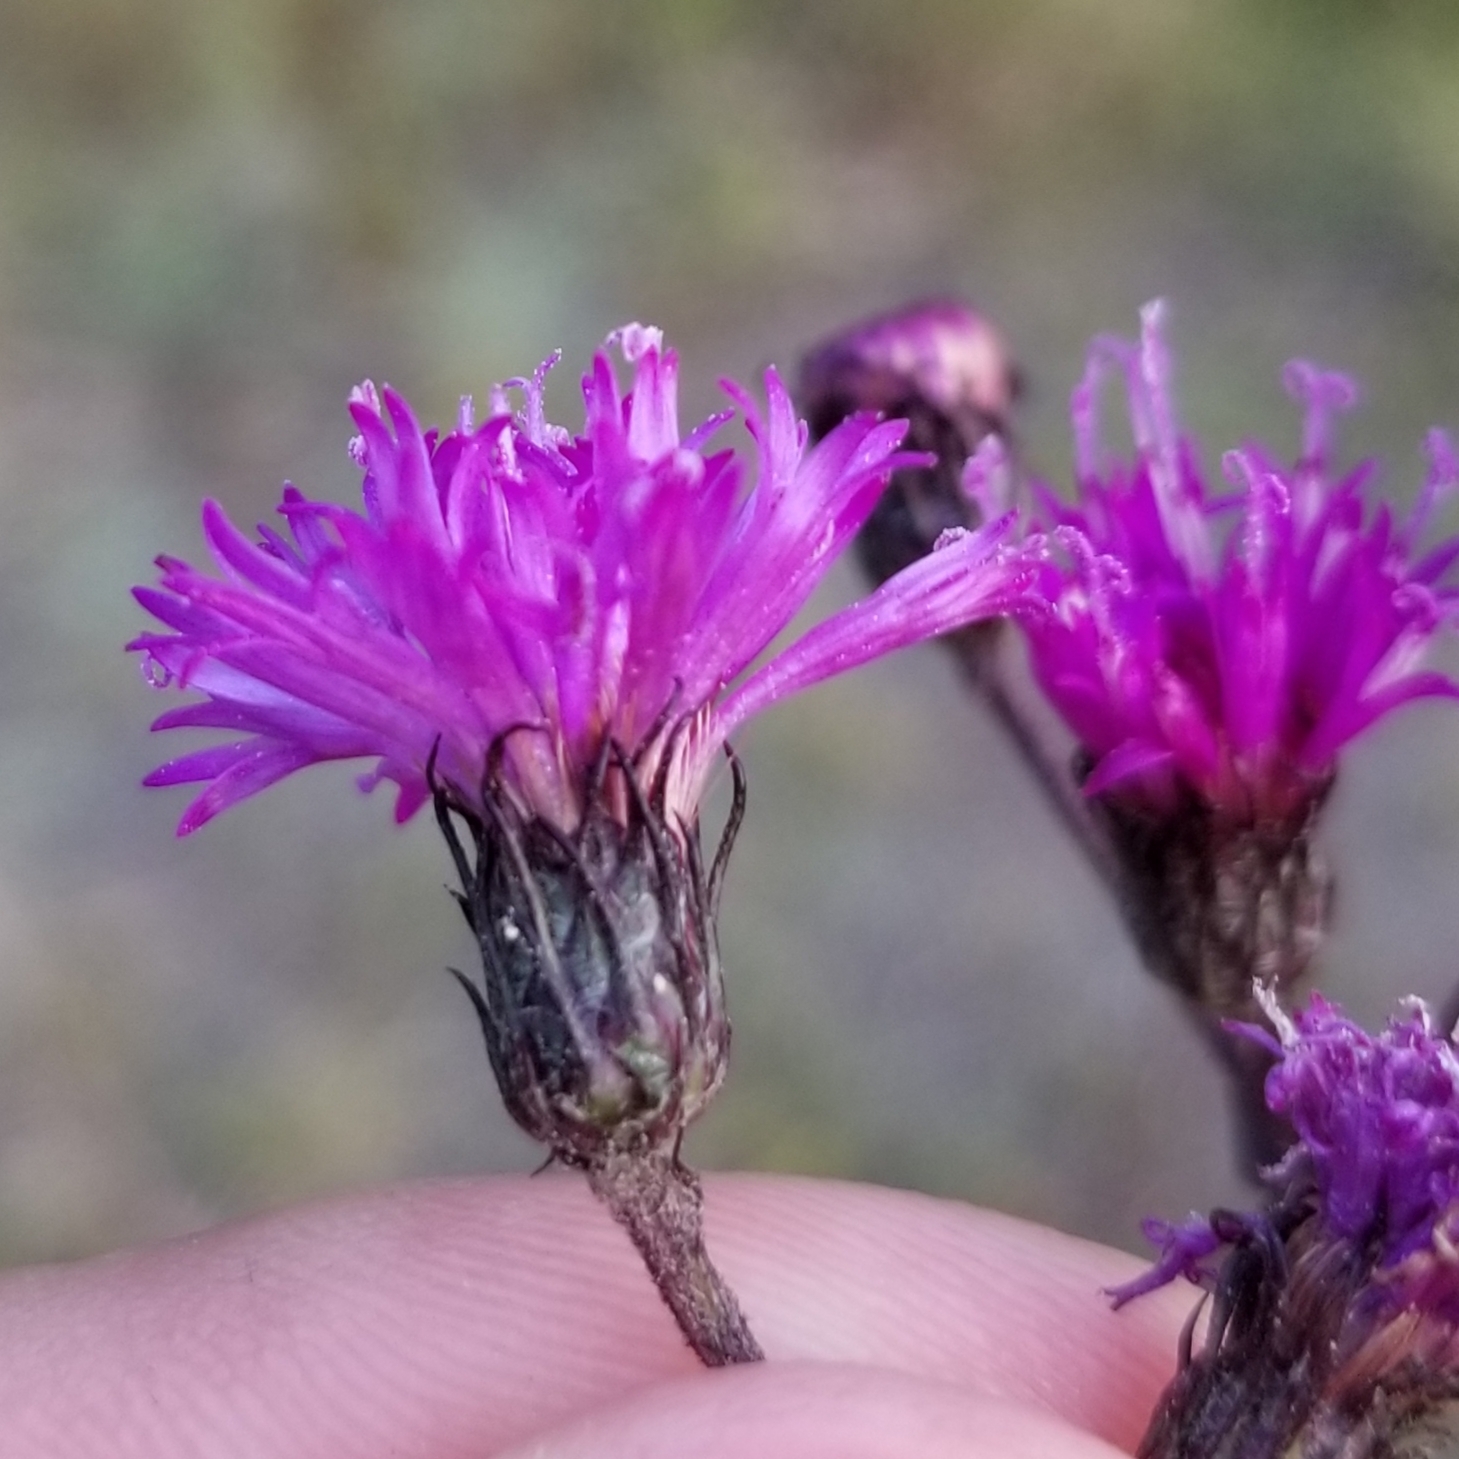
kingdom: Plantae
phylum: Tracheophyta
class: Magnoliopsida
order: Asterales
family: Asteraceae
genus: Vernonia
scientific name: Vernonia noveboracensis
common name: New york ironweed
